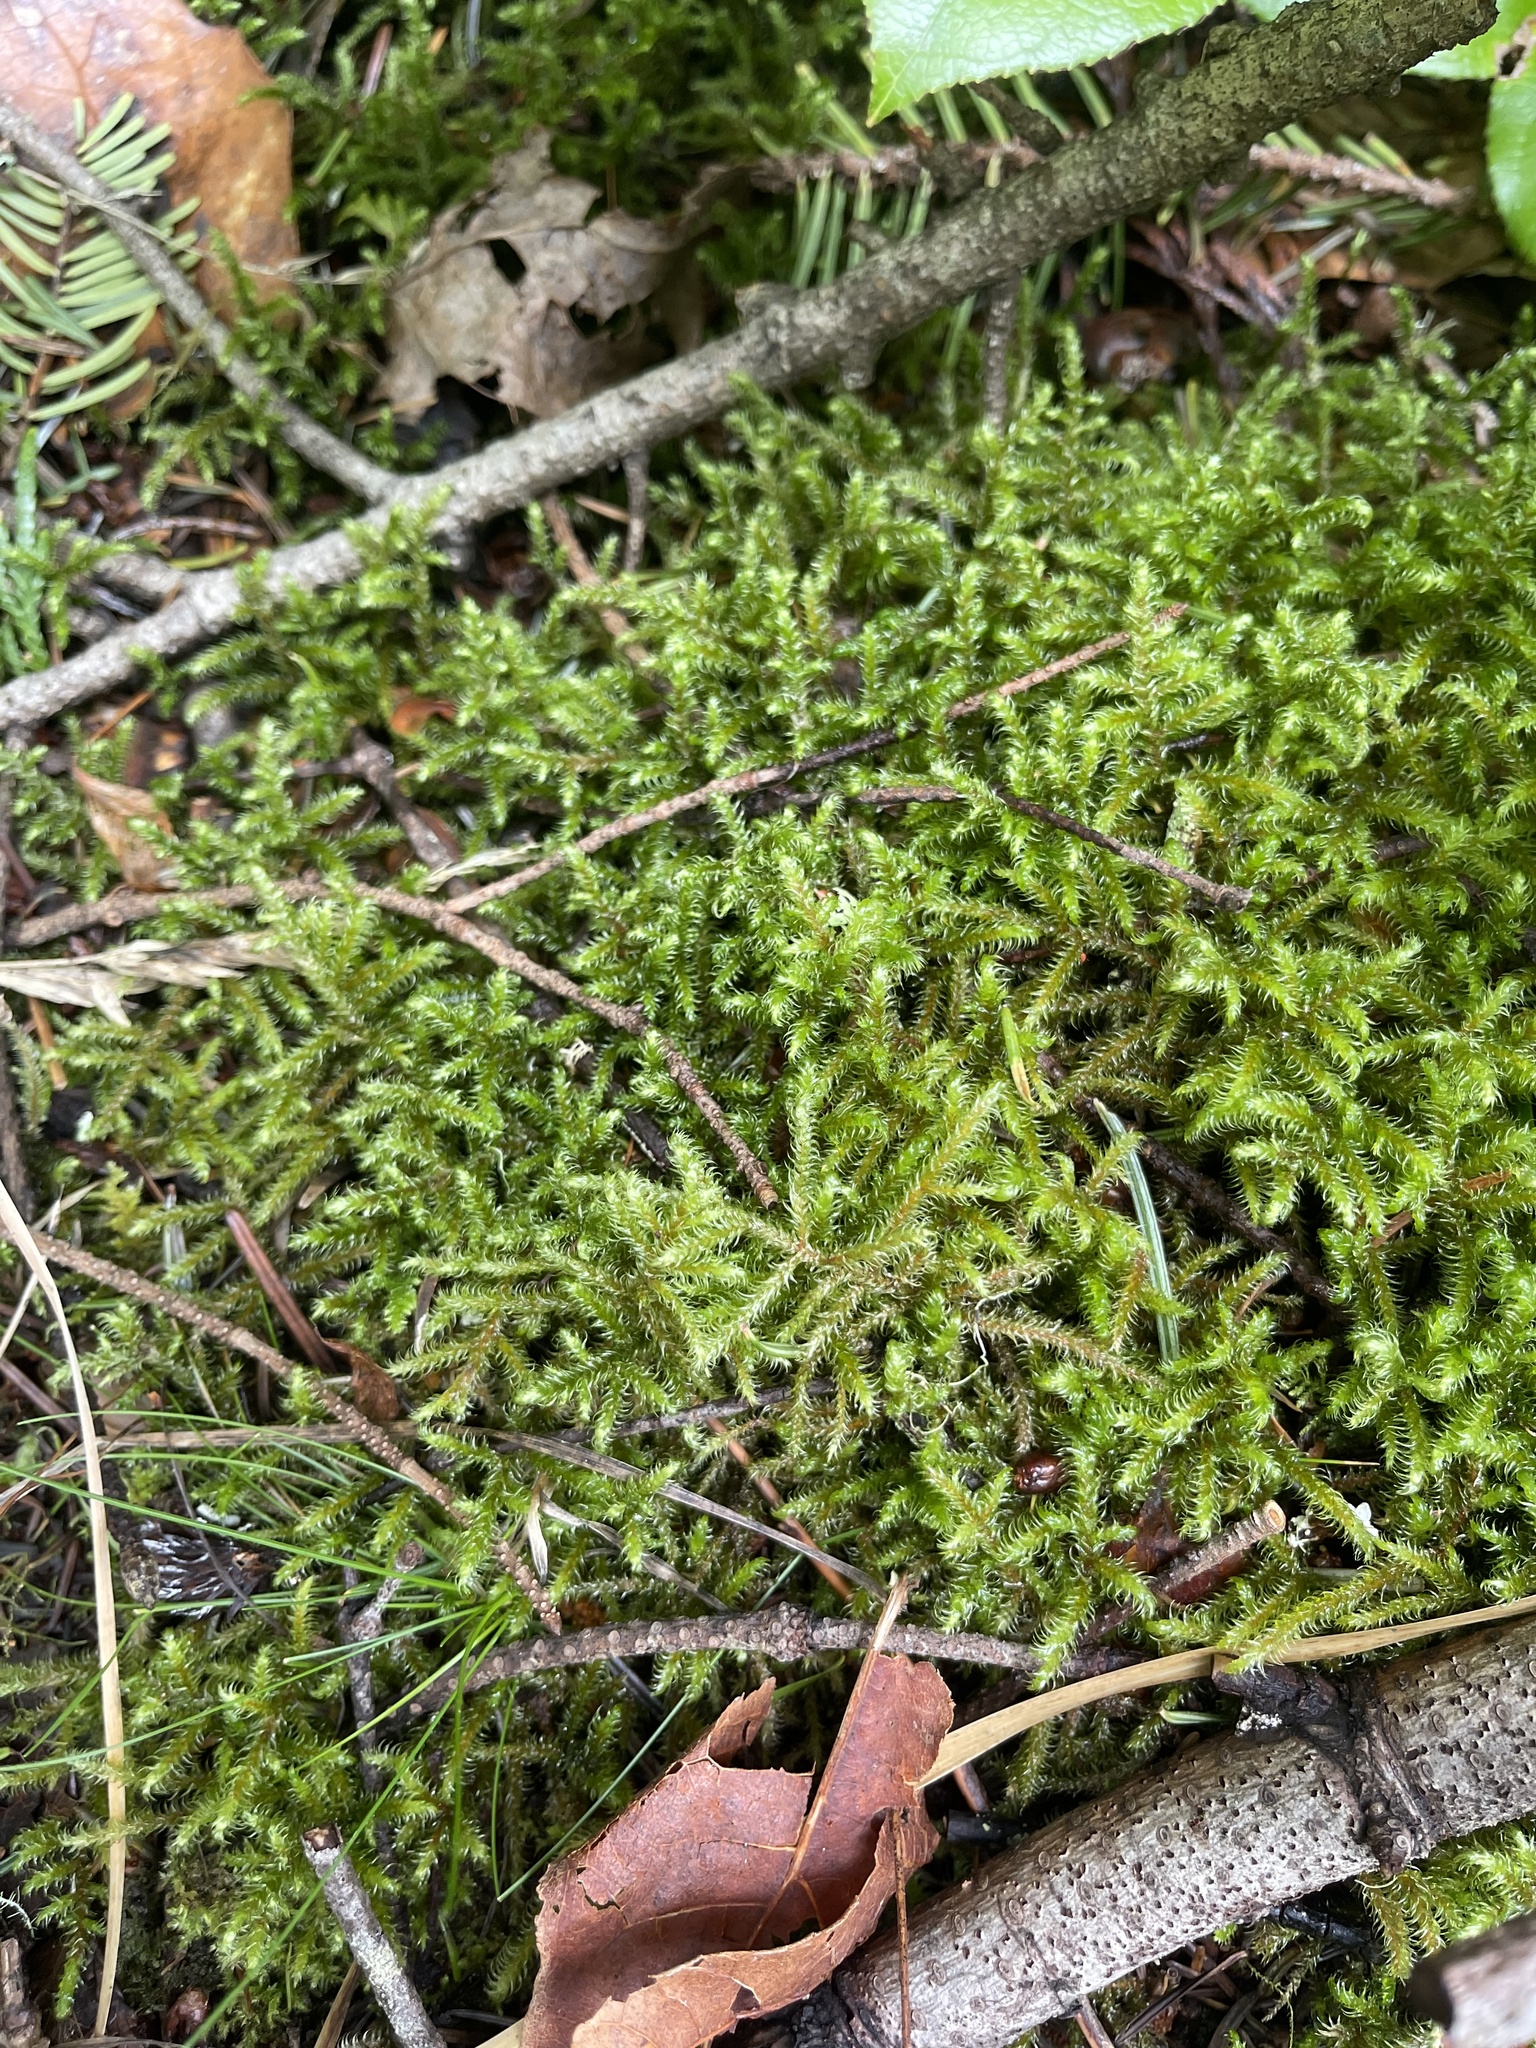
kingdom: Plantae
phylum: Bryophyta
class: Bryopsida
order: Hypnales
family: Hylocomiaceae
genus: Rhytidiadelphus
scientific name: Rhytidiadelphus loreus
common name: Lanky moss
